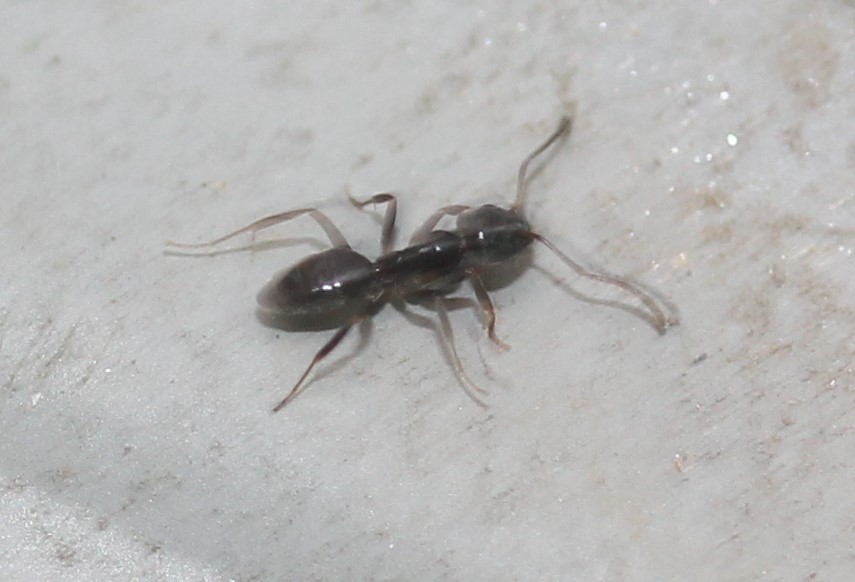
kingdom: Animalia
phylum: Arthropoda
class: Insecta
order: Hymenoptera
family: Formicidae
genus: Tapinoma
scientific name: Tapinoma sessile
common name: Odorous house ant
